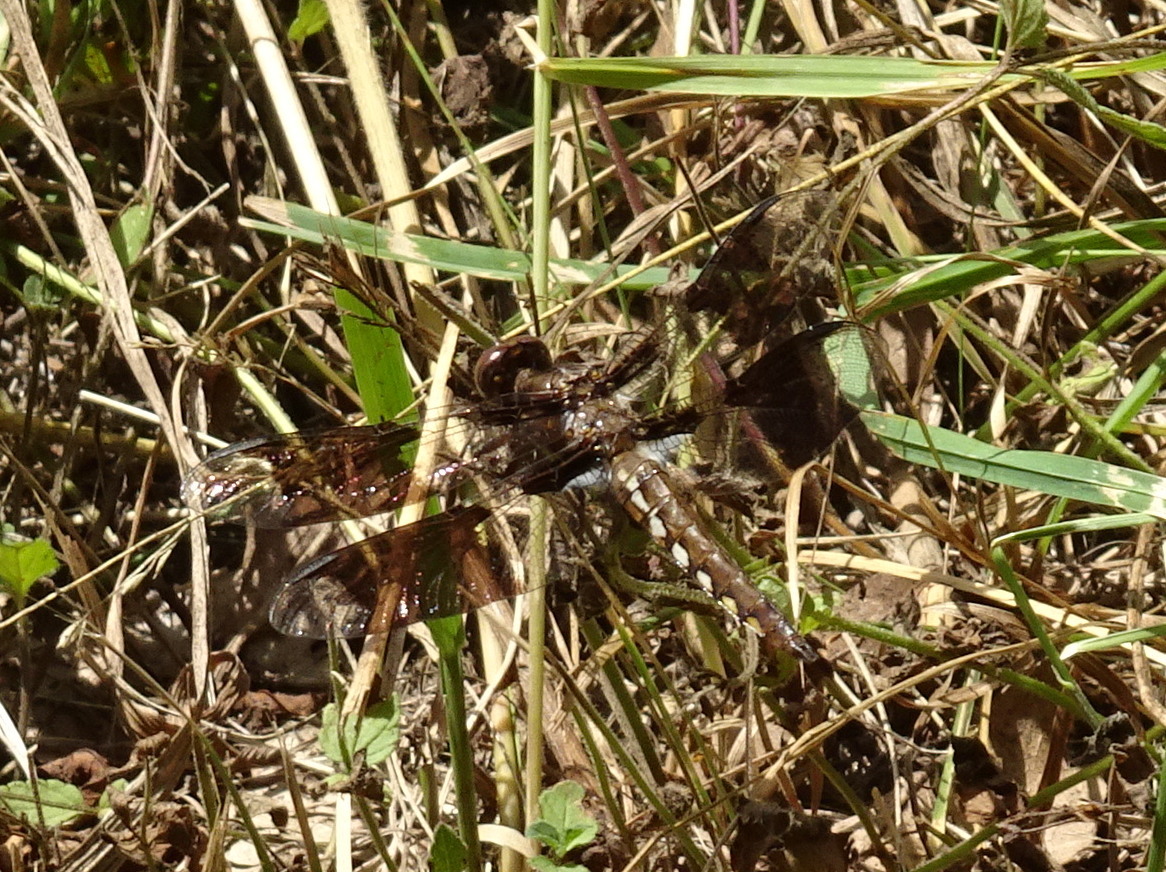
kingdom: Animalia
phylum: Arthropoda
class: Insecta
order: Odonata
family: Libellulidae
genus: Plathemis
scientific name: Plathemis lydia
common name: Common whitetail
